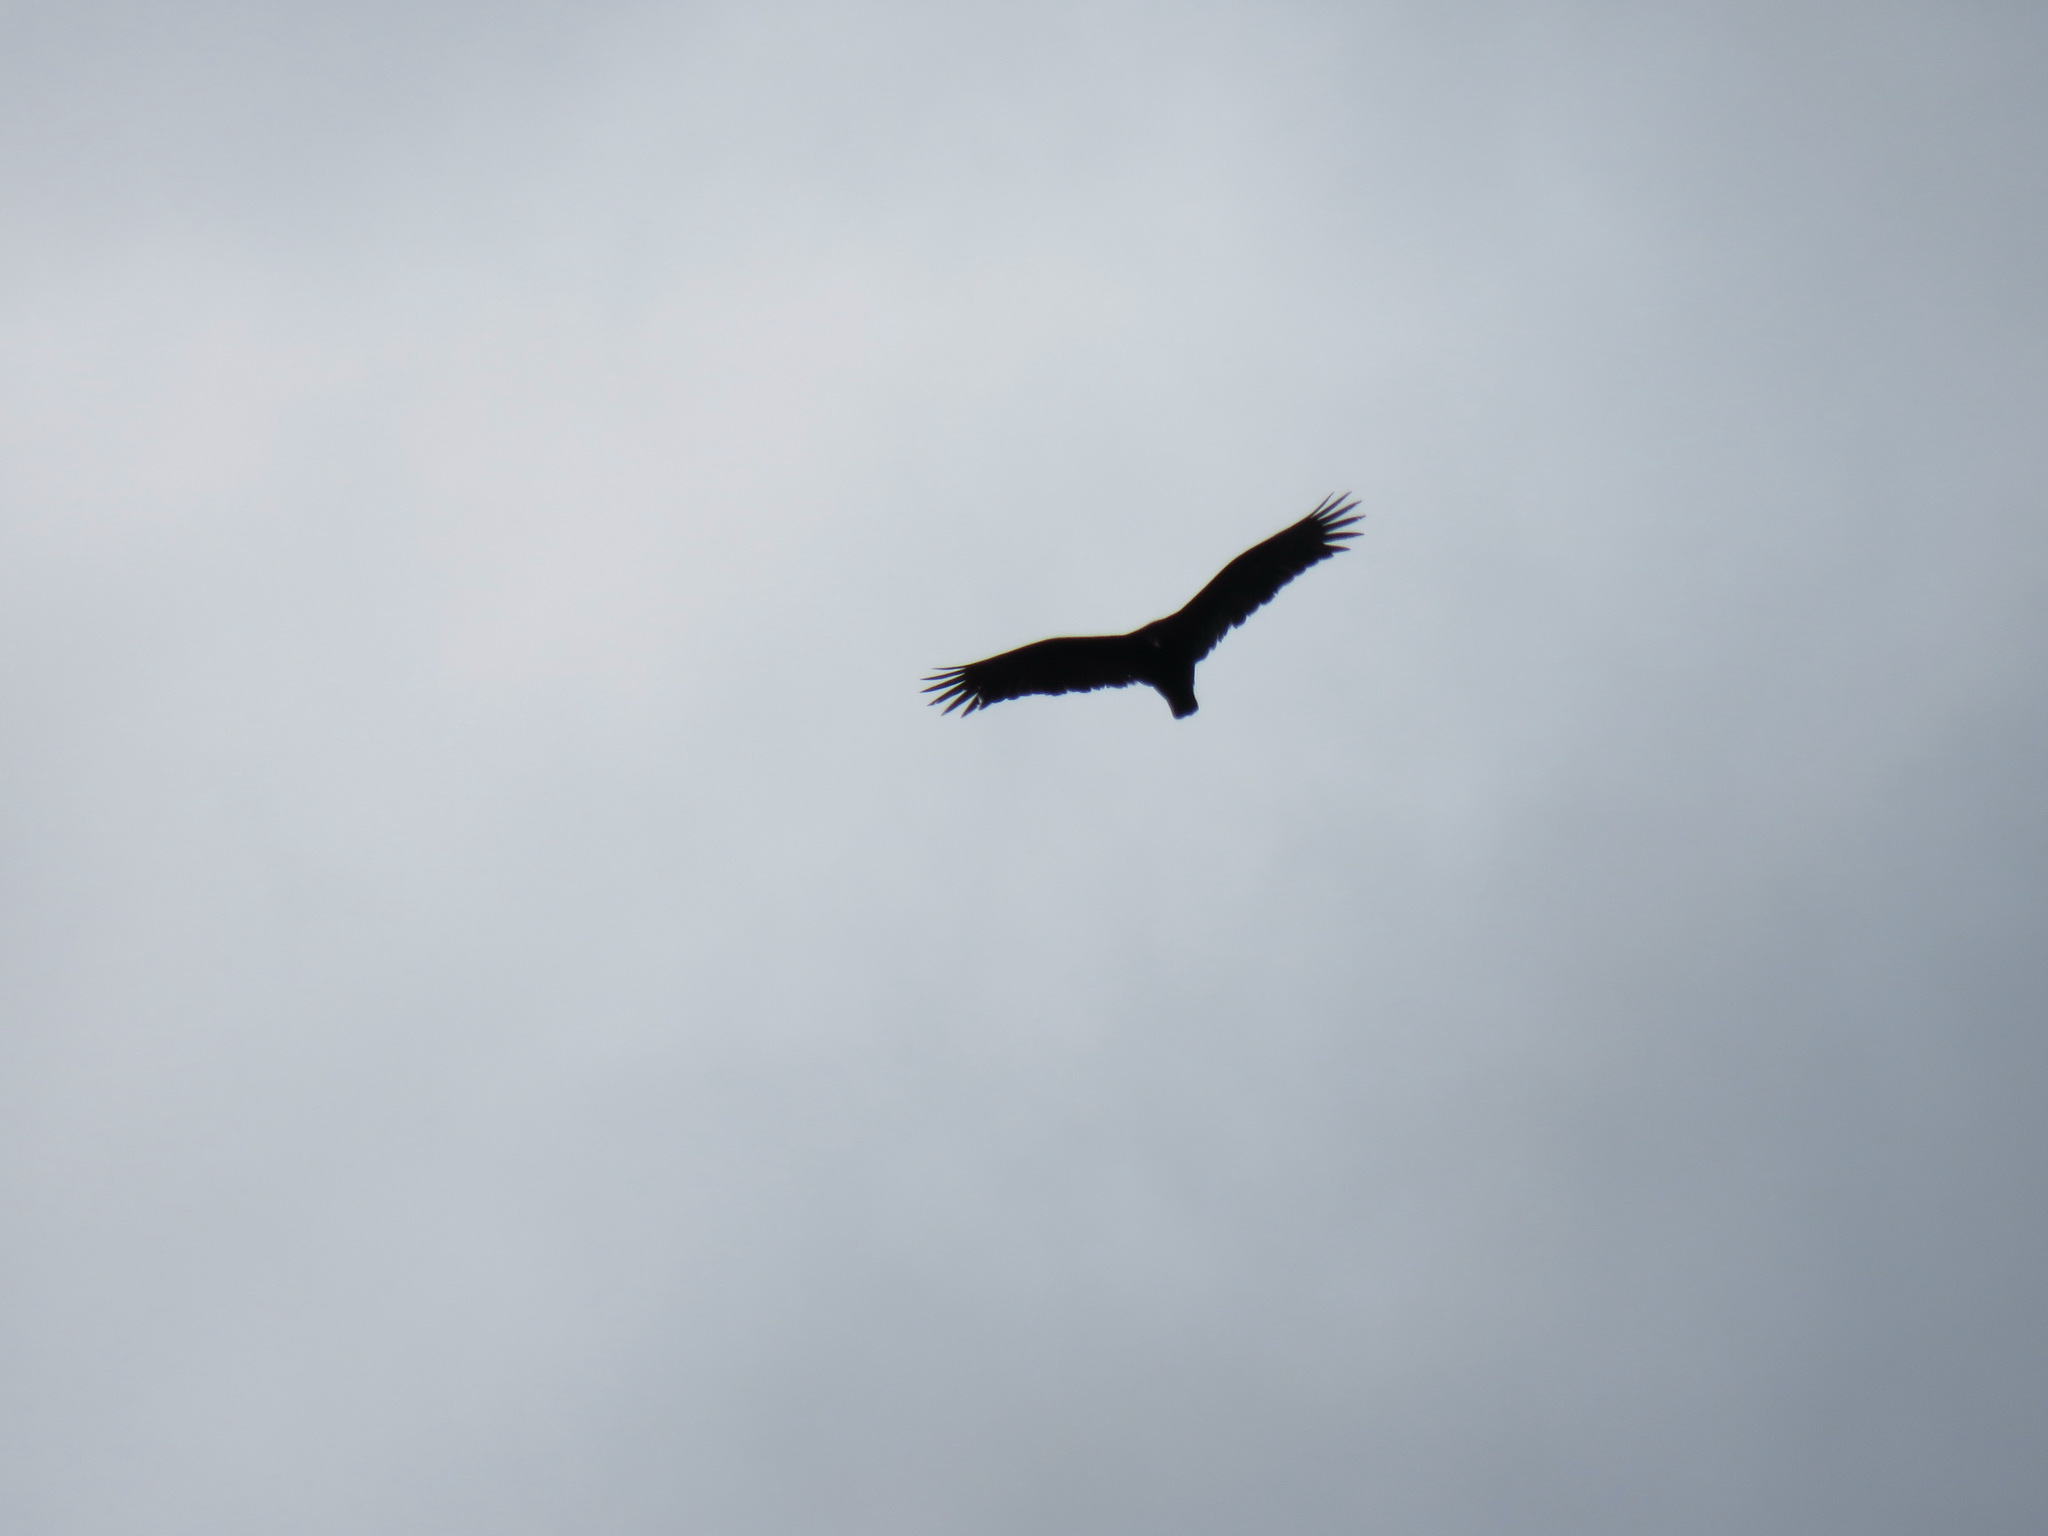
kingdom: Animalia
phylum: Chordata
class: Aves
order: Accipitriformes
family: Cathartidae
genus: Cathartes
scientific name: Cathartes aura
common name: Turkey vulture
